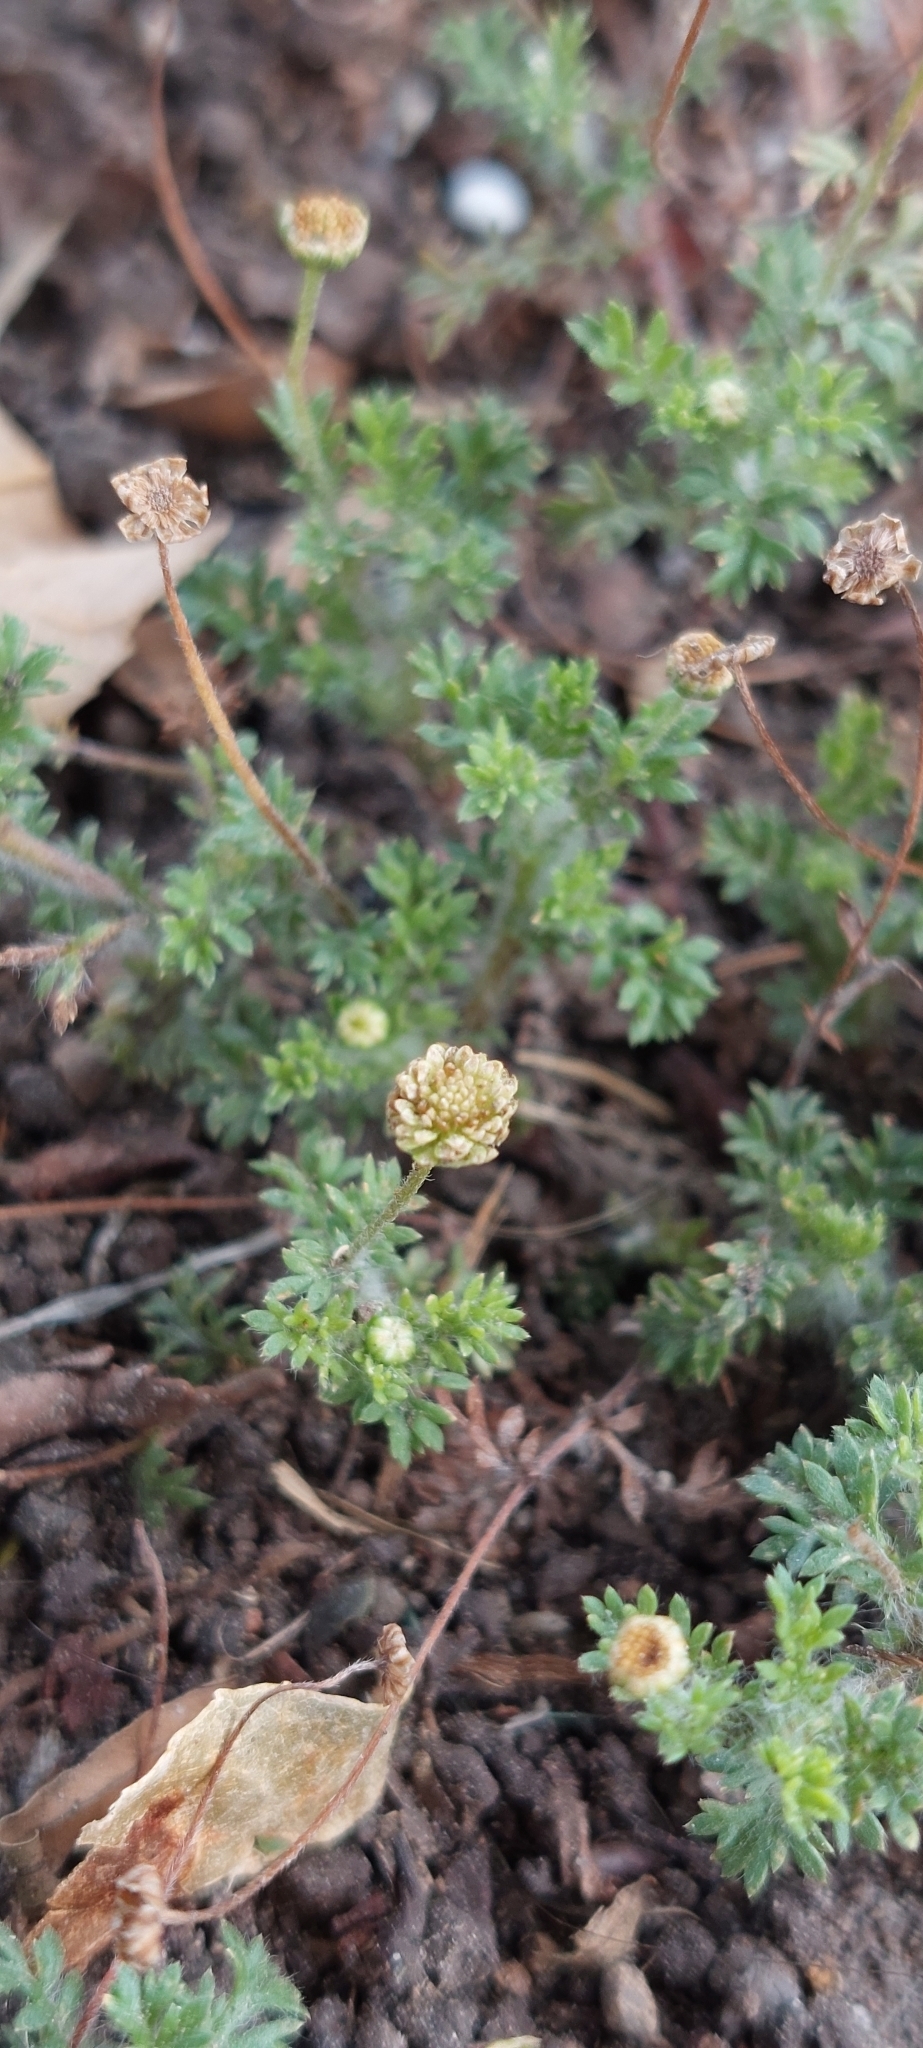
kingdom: Plantae
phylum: Tracheophyta
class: Magnoliopsida
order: Asterales
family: Asteraceae
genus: Cotula
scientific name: Cotula australis
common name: Australian waterbuttons
